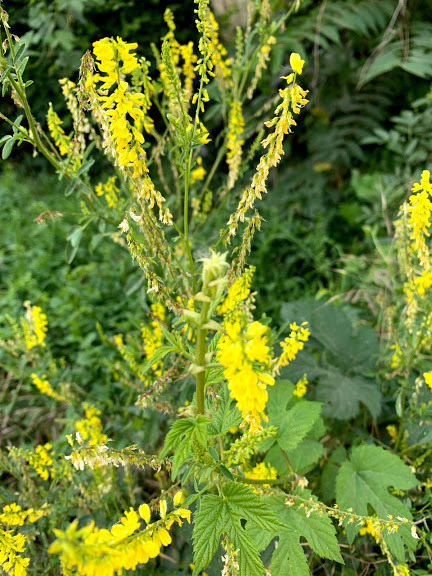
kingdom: Plantae
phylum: Tracheophyta
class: Magnoliopsida
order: Fabales
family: Fabaceae
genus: Melilotus
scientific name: Melilotus officinalis
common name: Sweetclover
